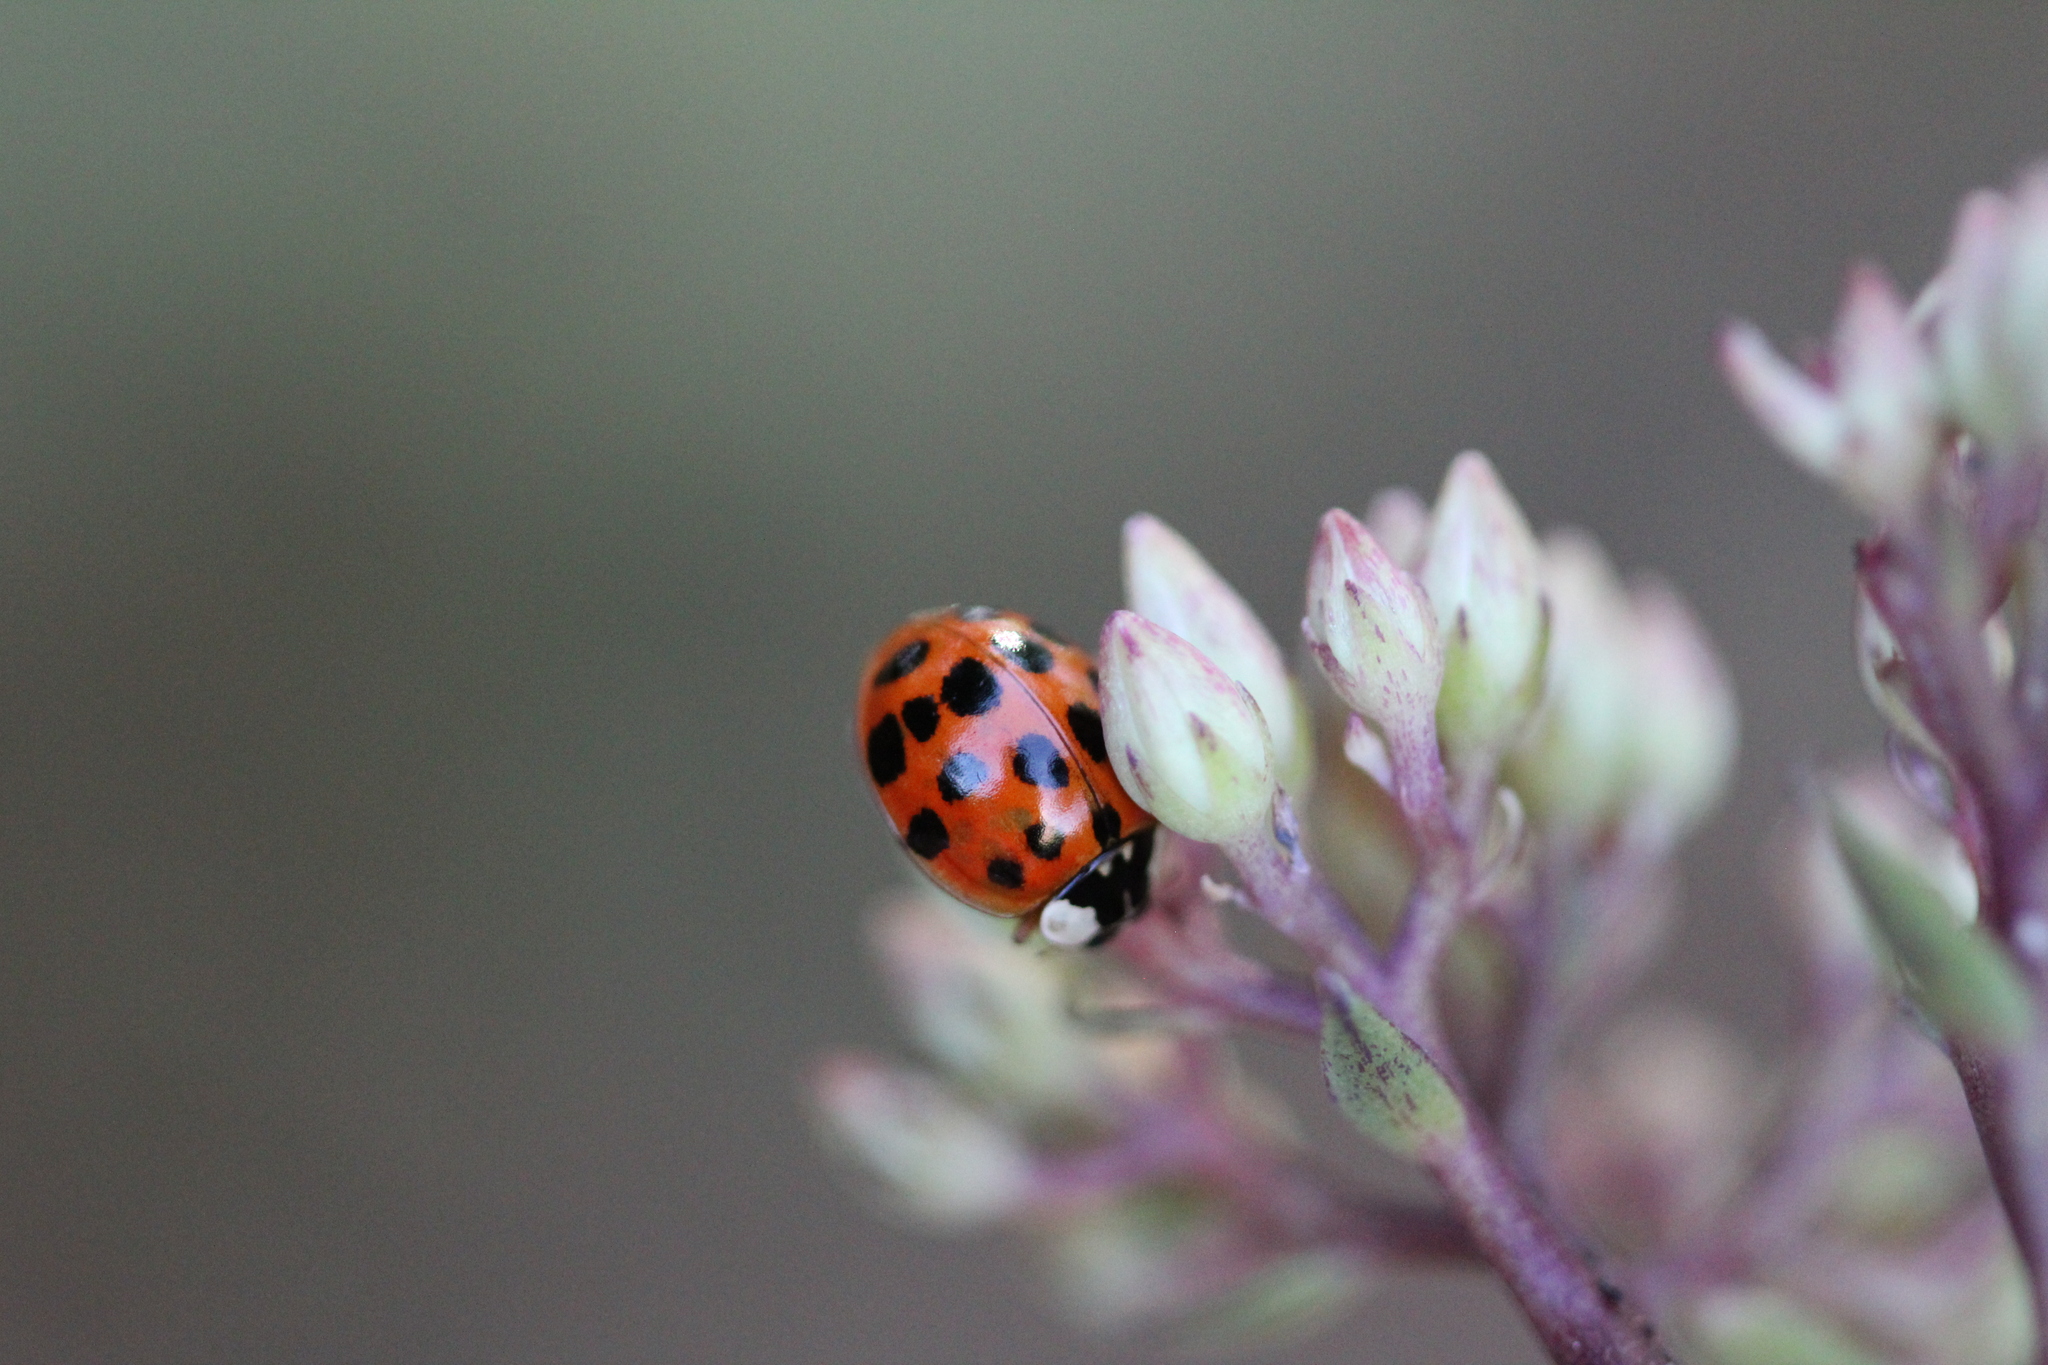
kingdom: Animalia
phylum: Arthropoda
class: Insecta
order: Coleoptera
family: Coccinellidae
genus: Harmonia
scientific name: Harmonia axyridis
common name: Harlequin ladybird
